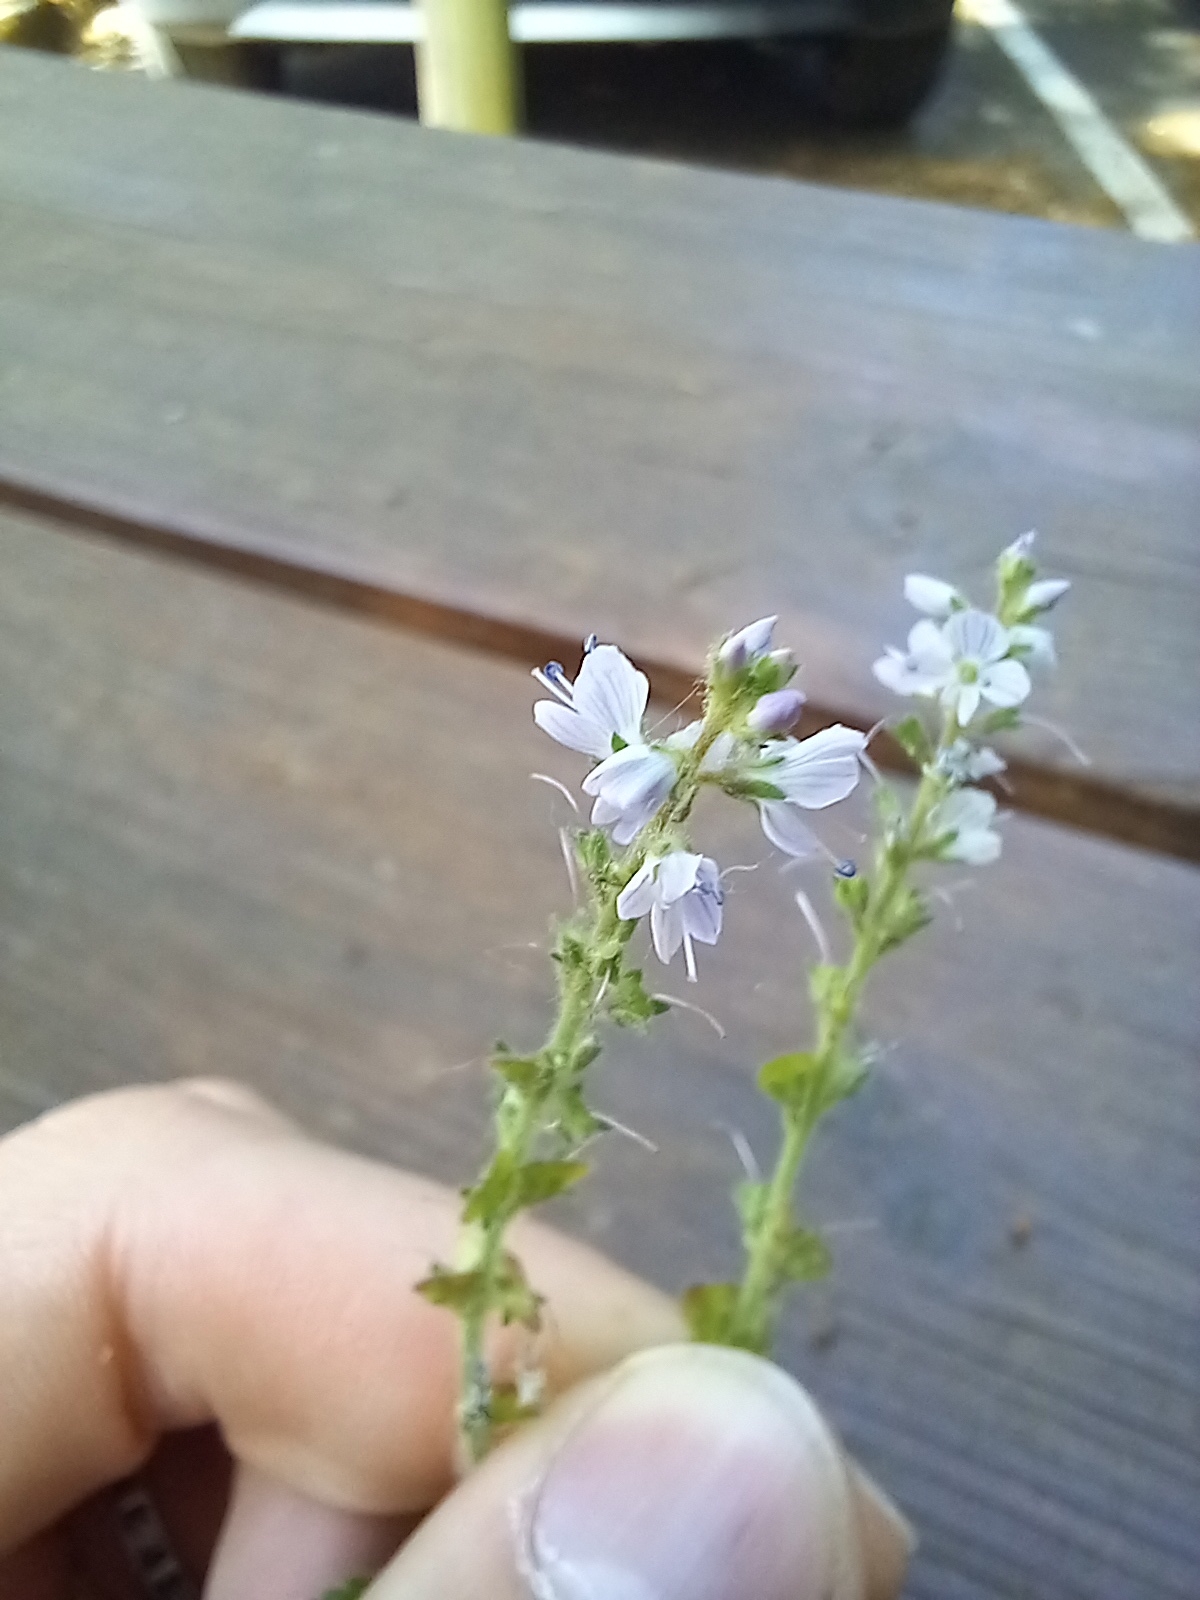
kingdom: Plantae
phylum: Tracheophyta
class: Magnoliopsida
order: Lamiales
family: Plantaginaceae
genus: Veronica
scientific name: Veronica officinalis
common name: Common speedwell
